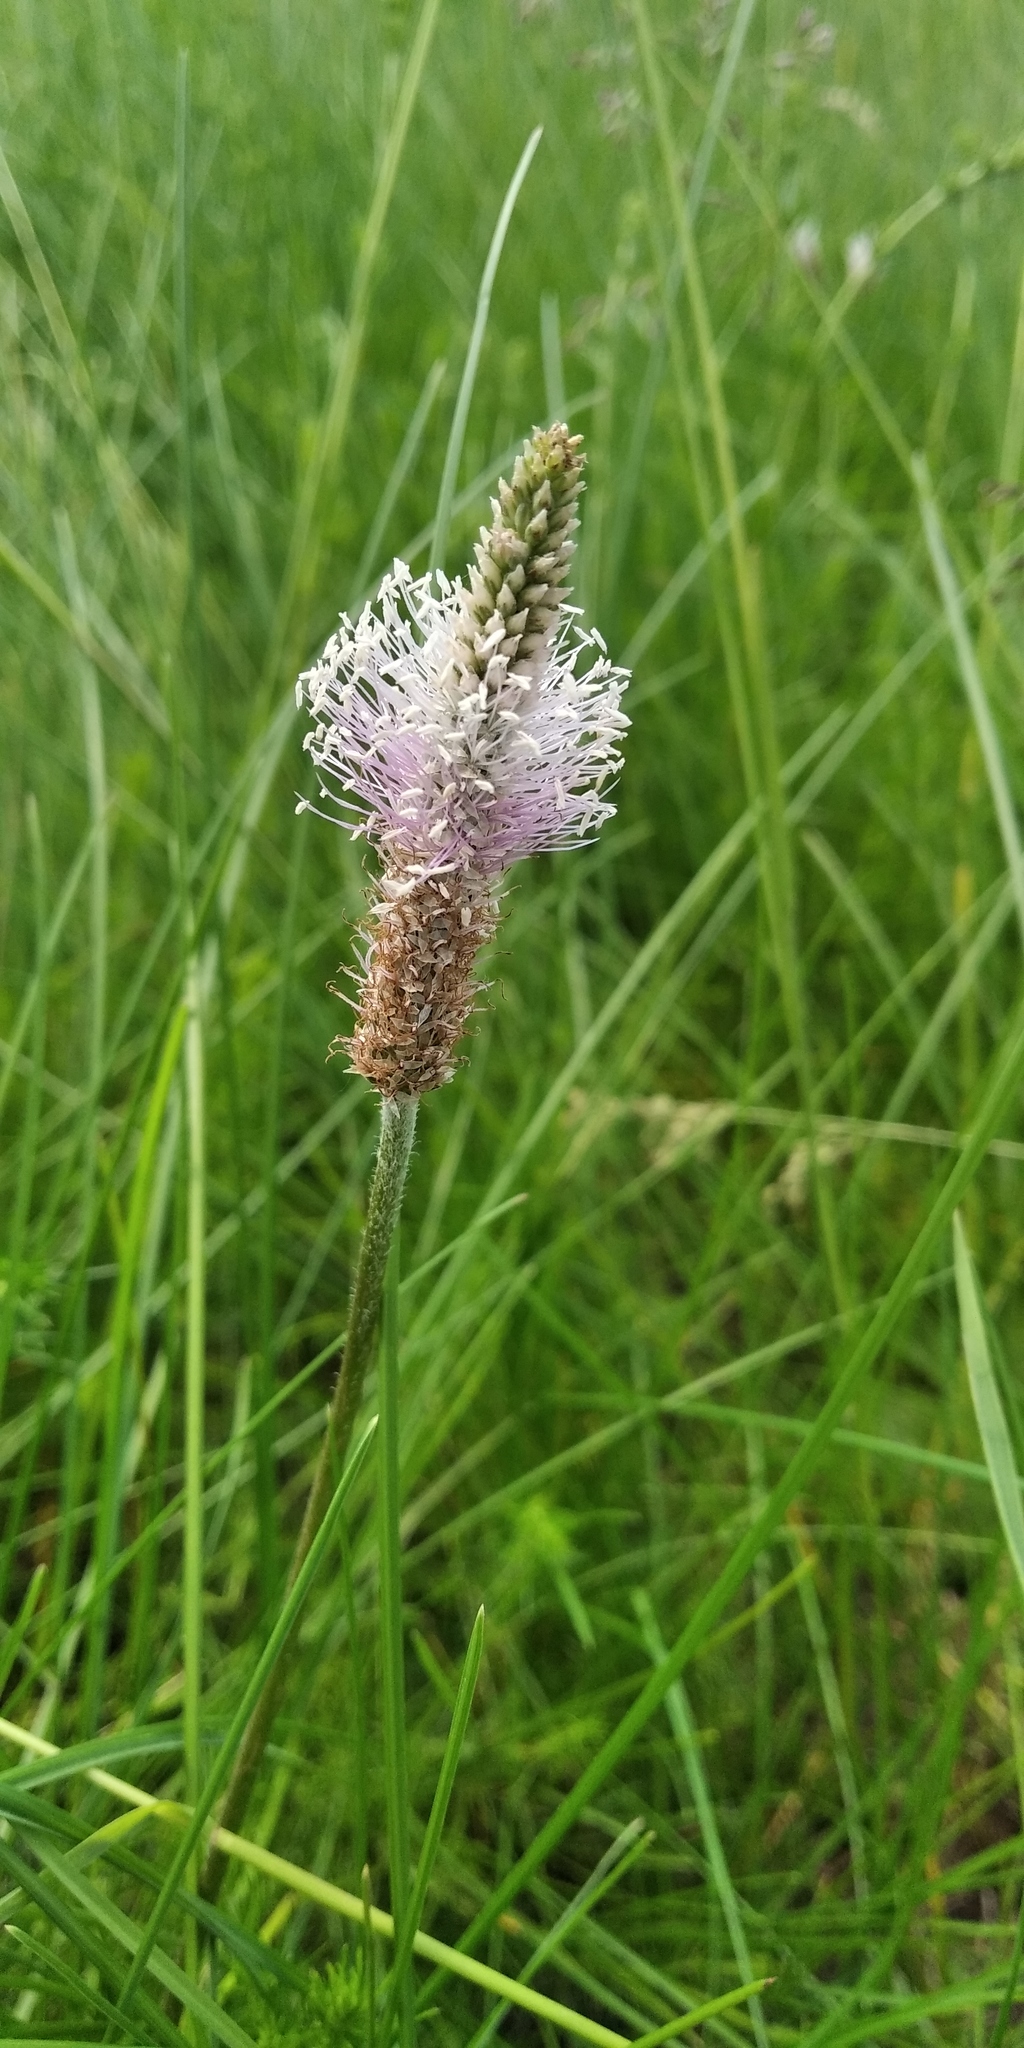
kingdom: Plantae
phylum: Tracheophyta
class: Magnoliopsida
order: Lamiales
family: Plantaginaceae
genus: Plantago
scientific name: Plantago media
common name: Hoary plantain
